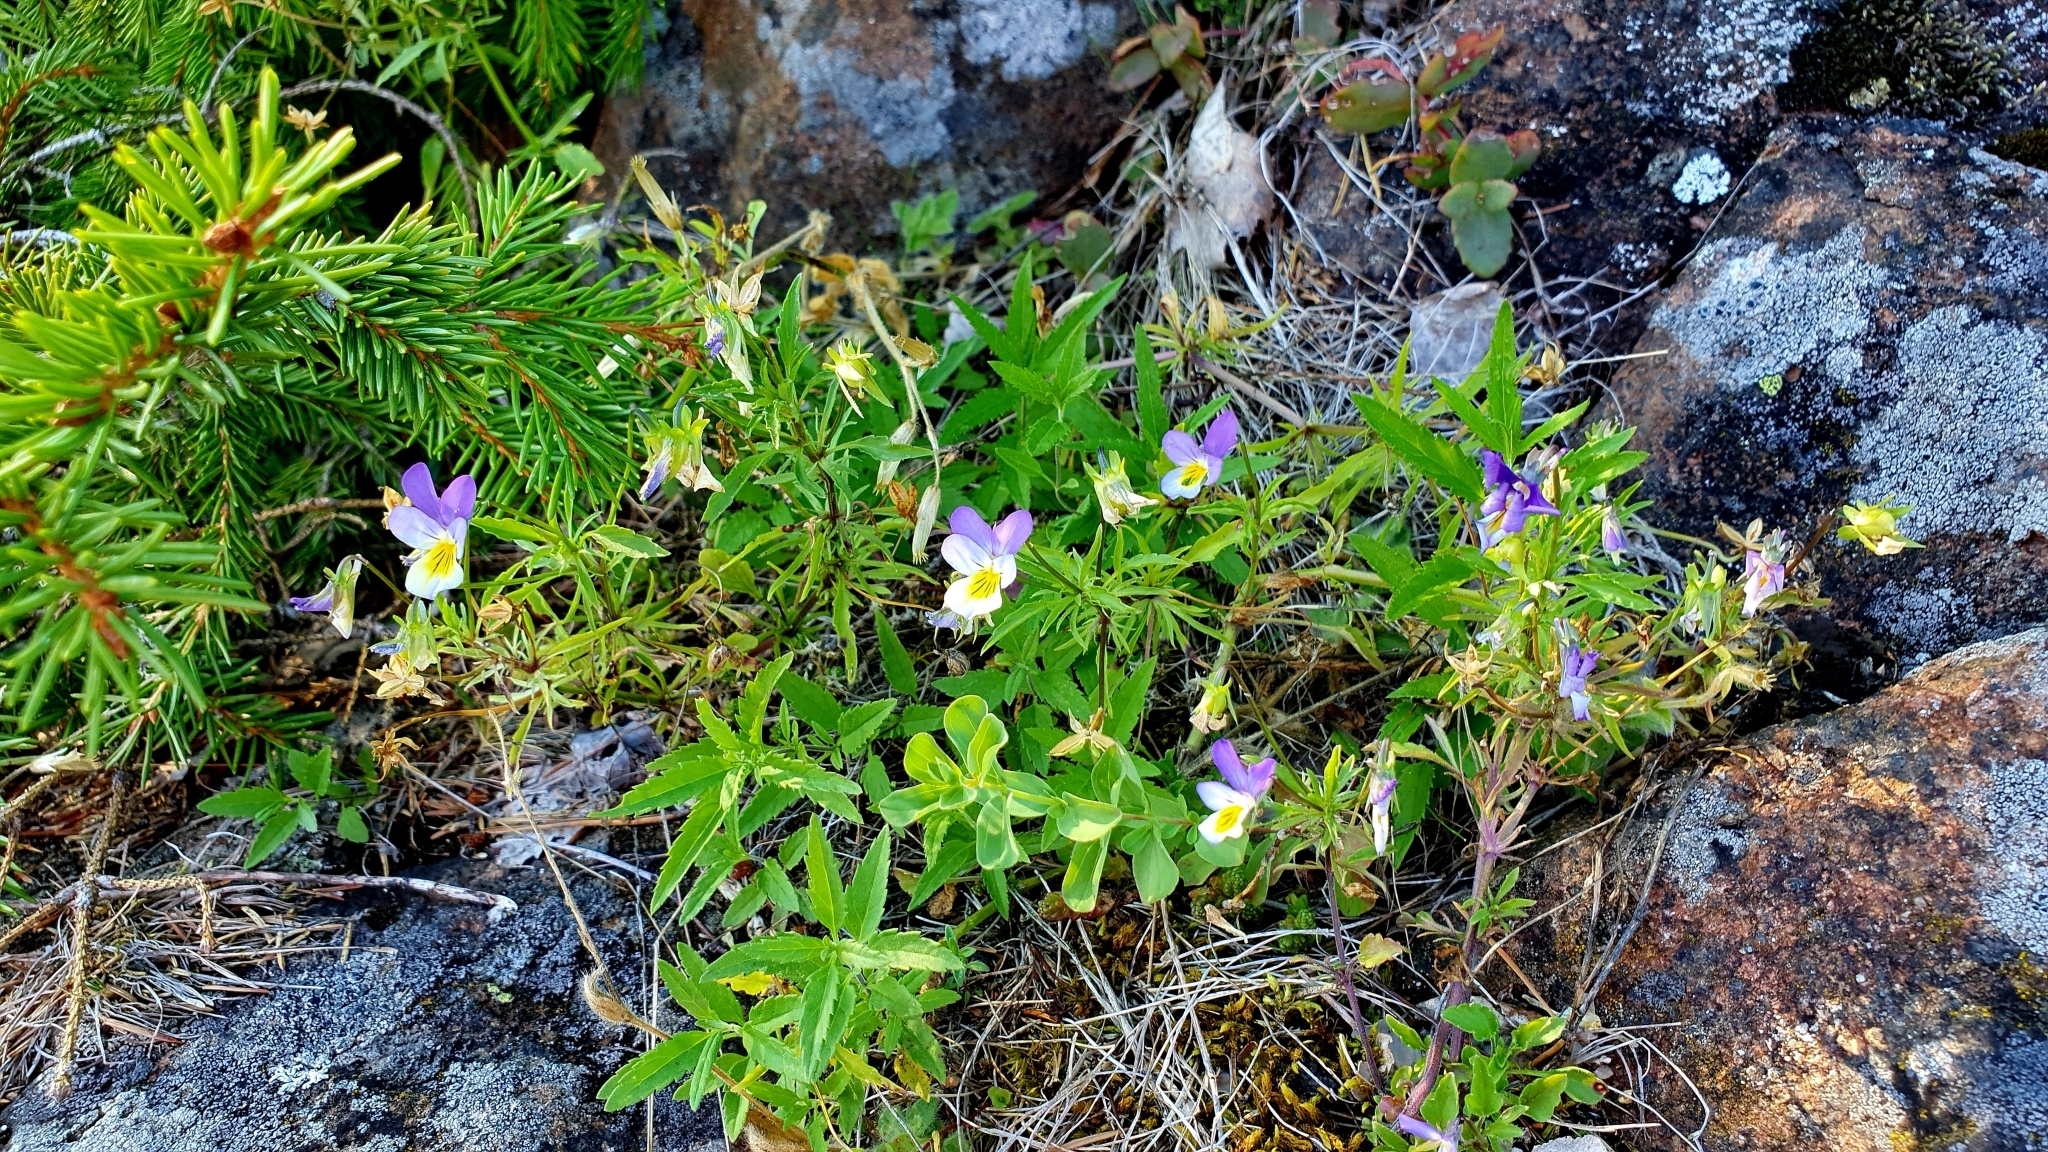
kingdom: Plantae
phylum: Tracheophyta
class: Magnoliopsida
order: Malpighiales
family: Violaceae
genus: Viola
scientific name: Viola tricolor
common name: Pansy
